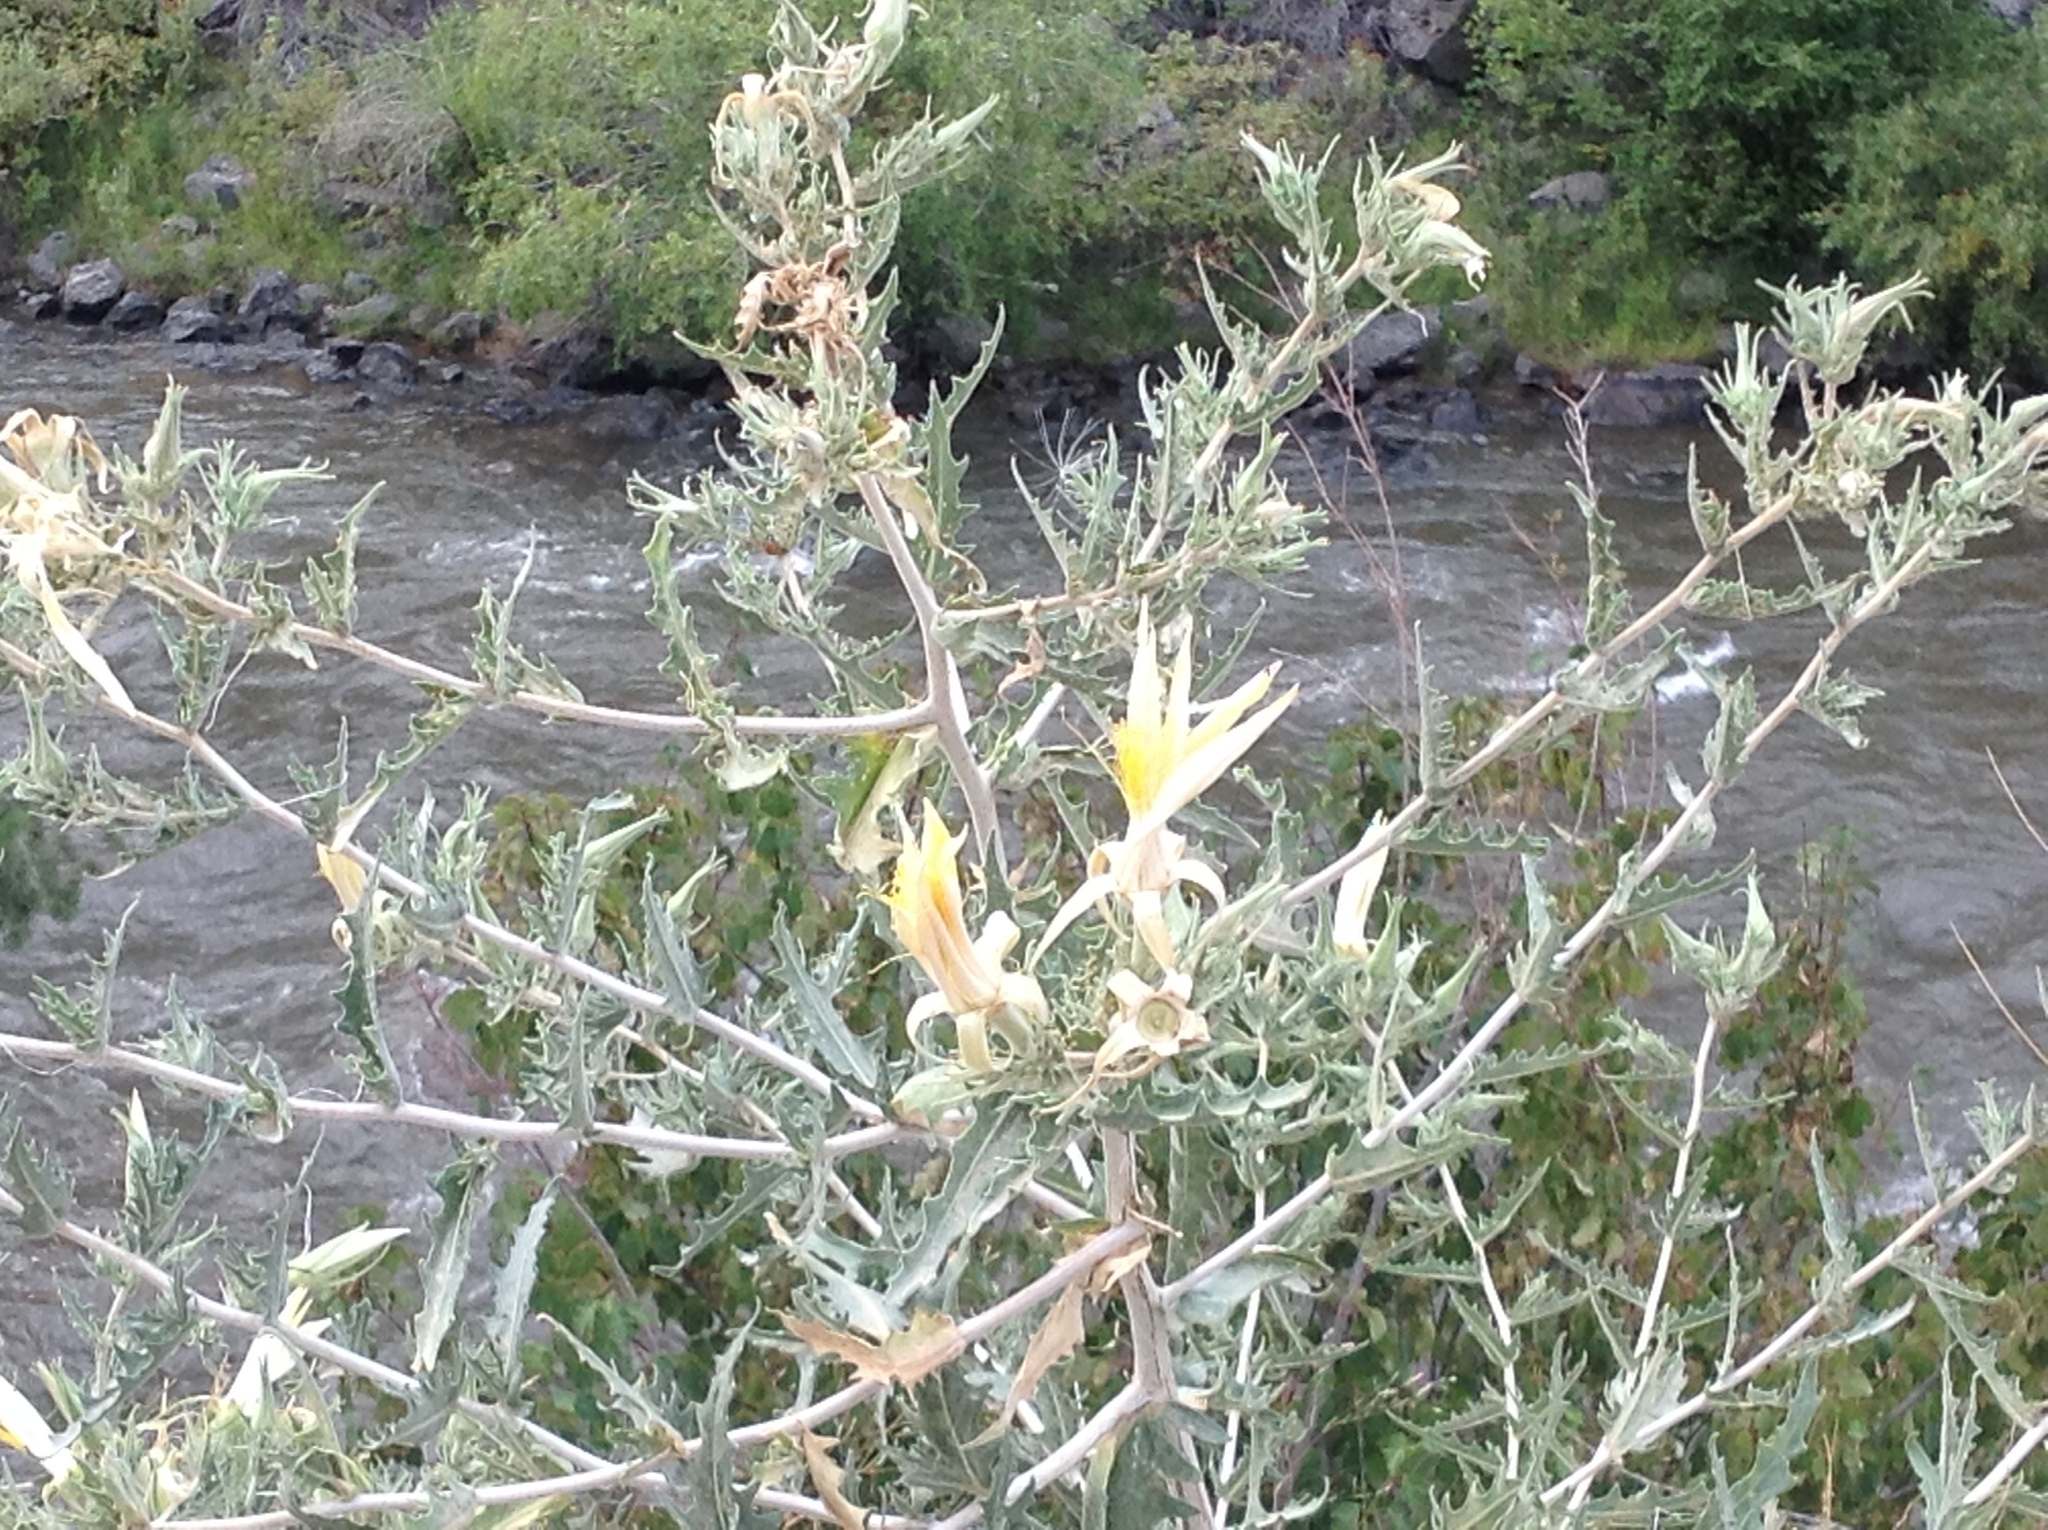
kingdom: Plantae
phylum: Tracheophyta
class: Magnoliopsida
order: Cornales
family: Loasaceae
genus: Mentzelia
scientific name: Mentzelia laevicaulis
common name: Smooth-stem blazingstar
